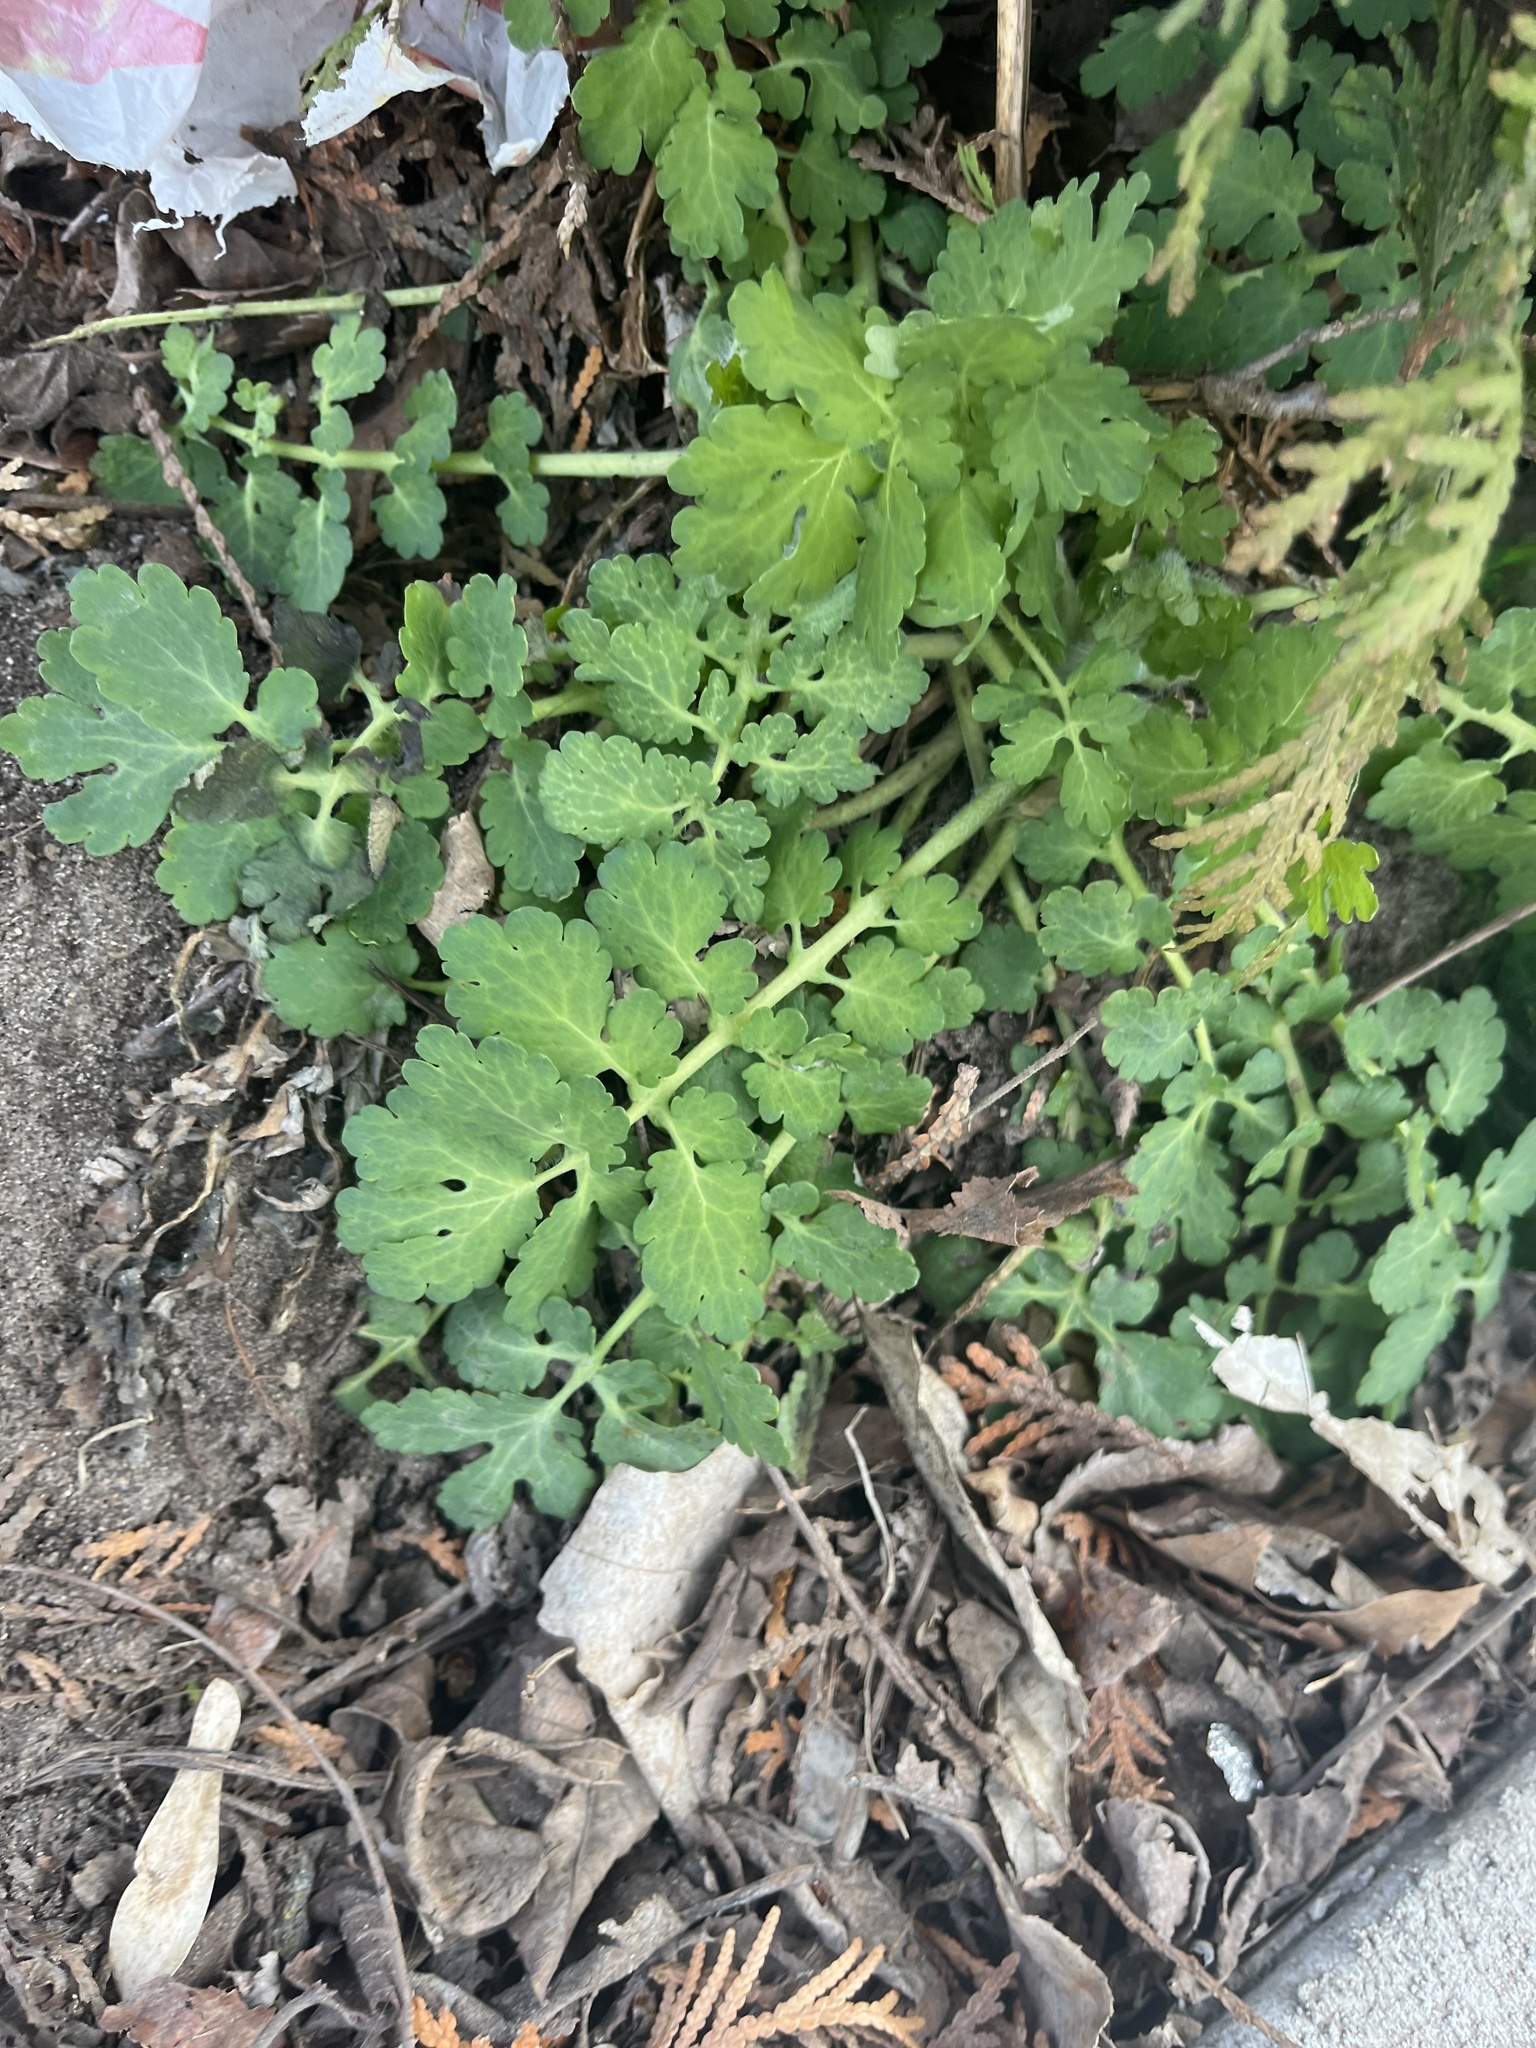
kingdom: Plantae
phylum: Tracheophyta
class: Magnoliopsida
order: Ranunculales
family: Papaveraceae
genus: Chelidonium
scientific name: Chelidonium majus
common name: Greater celandine
